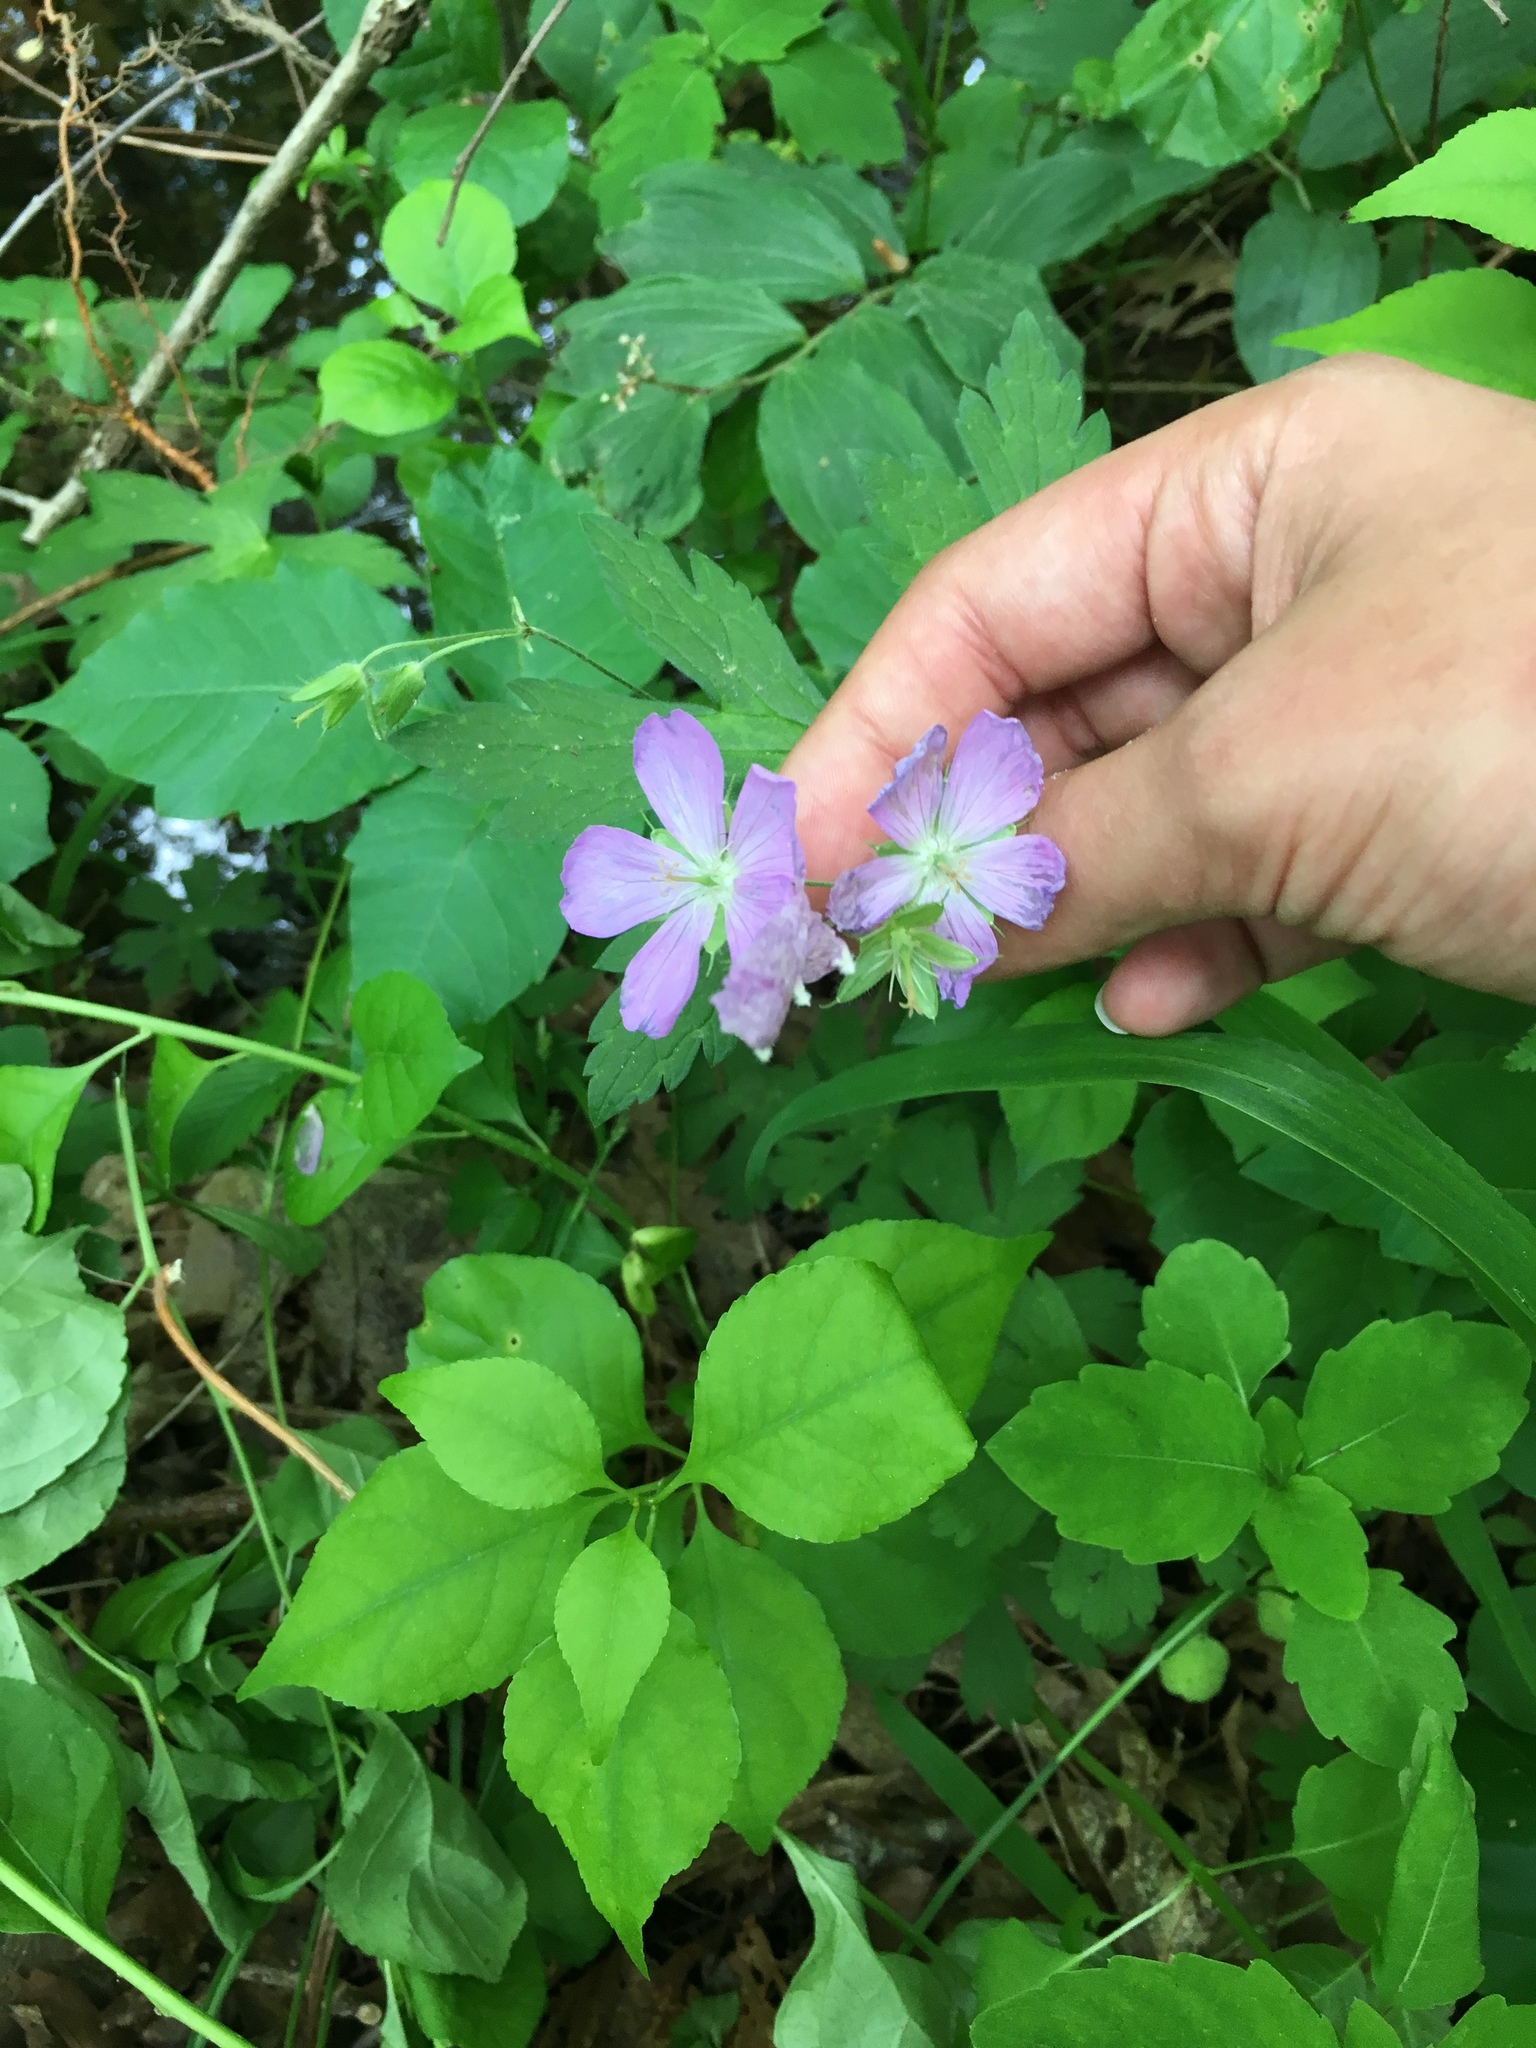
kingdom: Plantae
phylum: Tracheophyta
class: Magnoliopsida
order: Geraniales
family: Geraniaceae
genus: Geranium
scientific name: Geranium maculatum
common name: Spotted geranium
